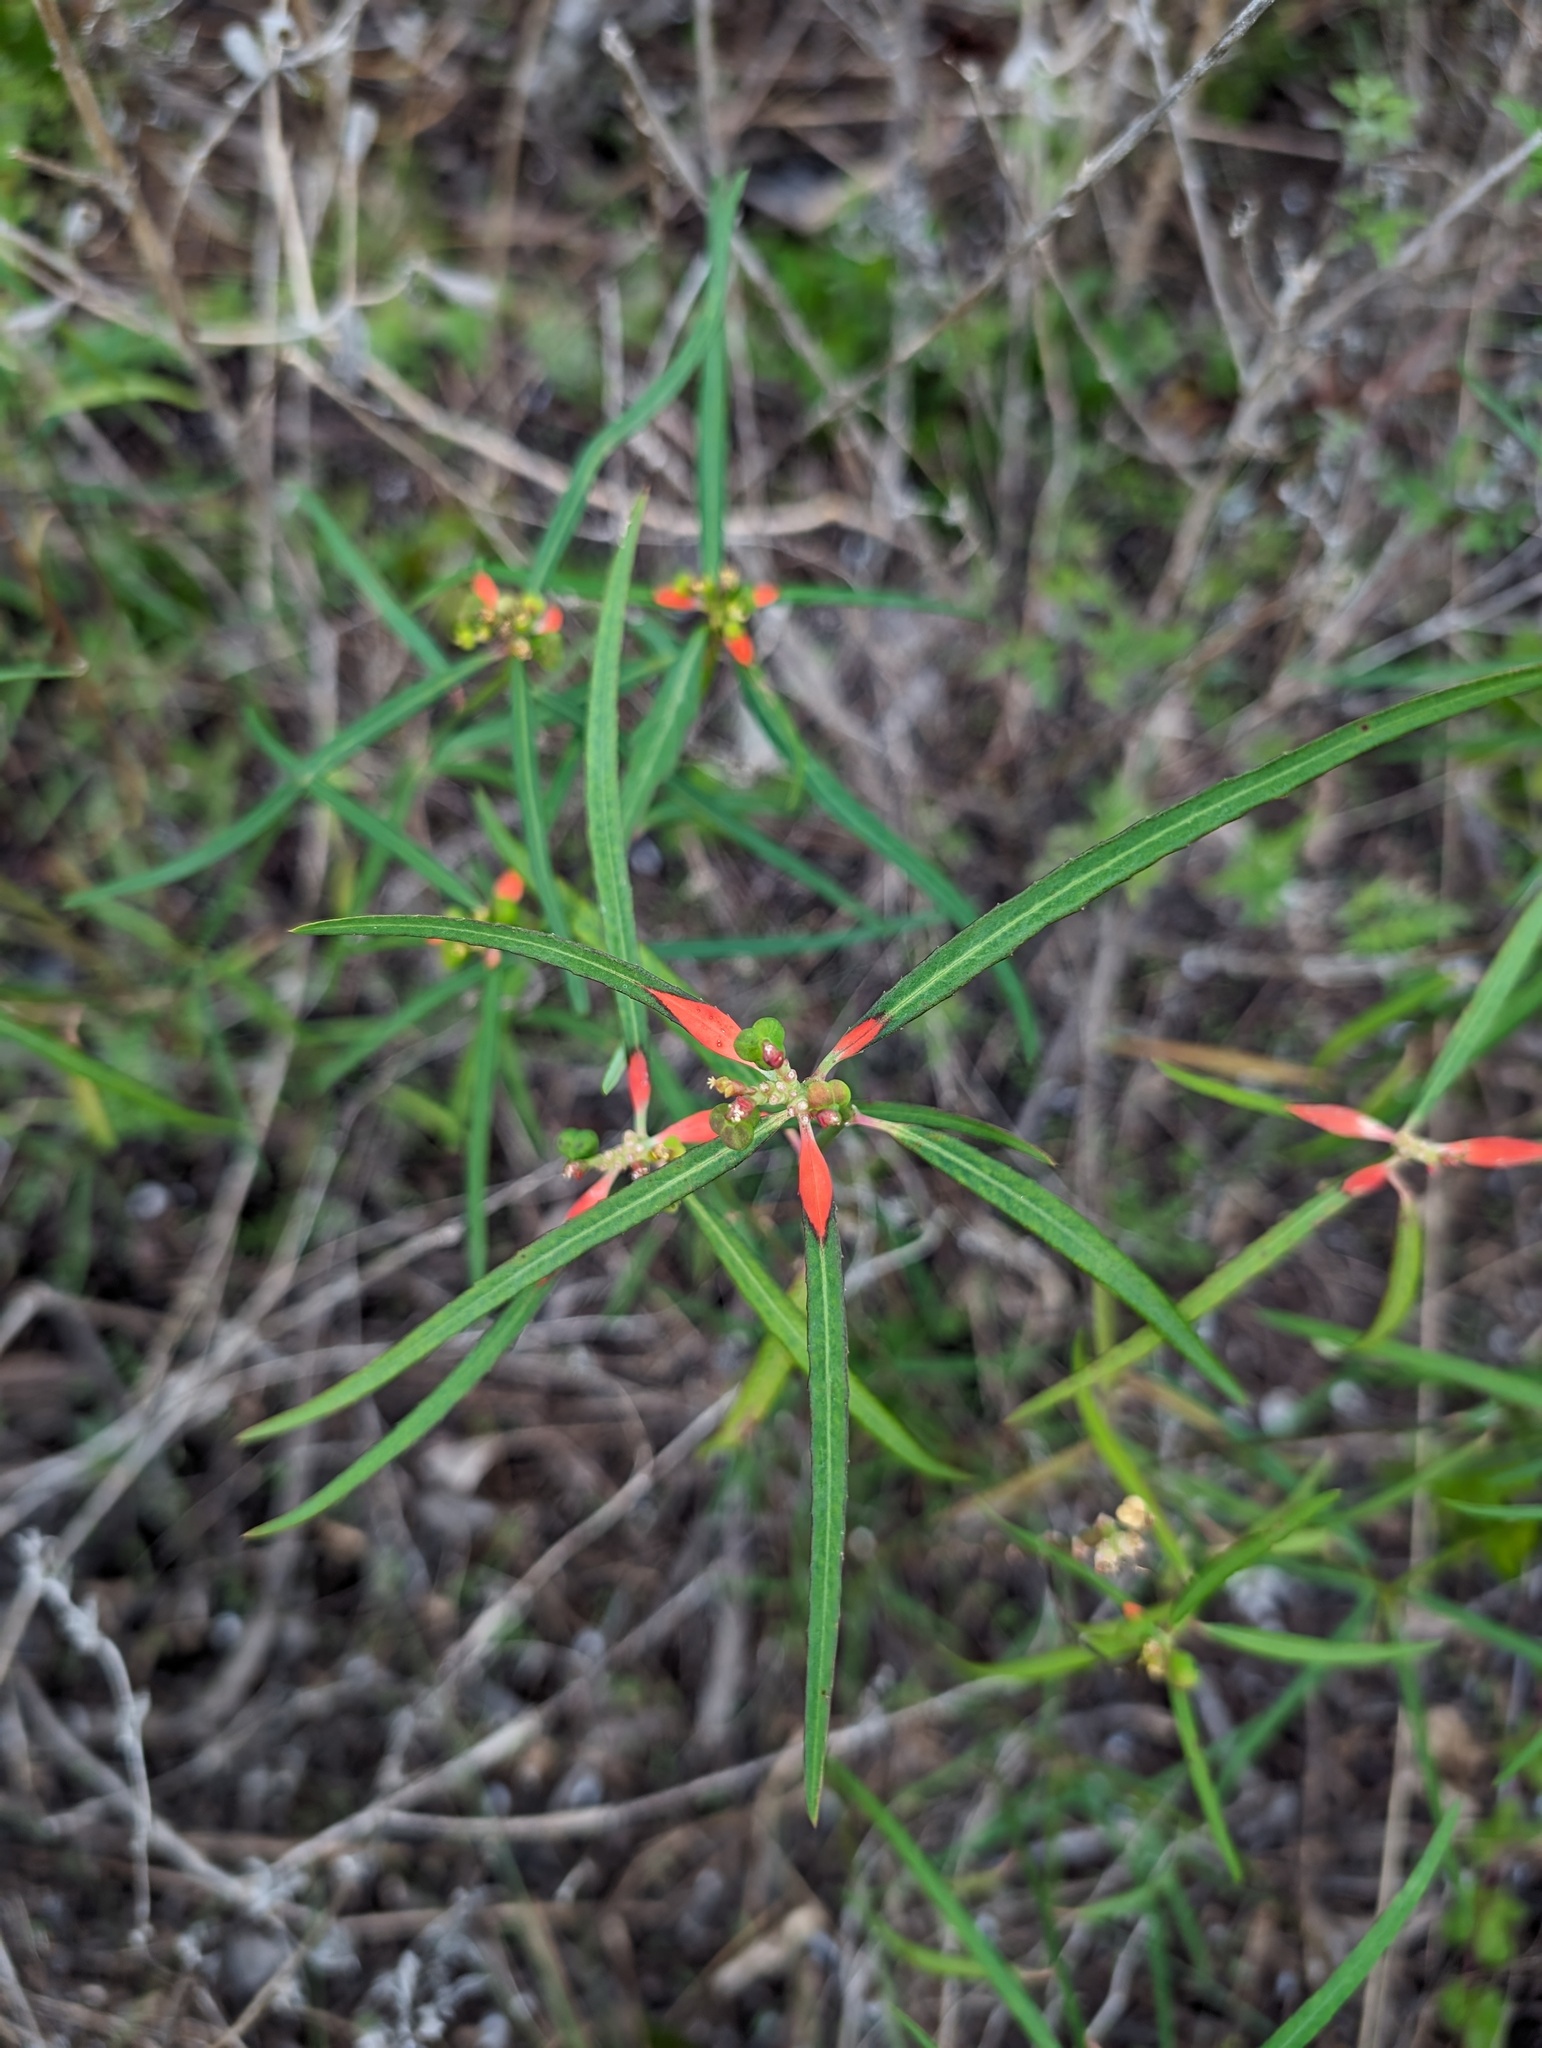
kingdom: Plantae
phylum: Tracheophyta
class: Magnoliopsida
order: Malpighiales
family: Euphorbiaceae
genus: Euphorbia
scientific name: Euphorbia heterophylla
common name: Mexican fireplant
